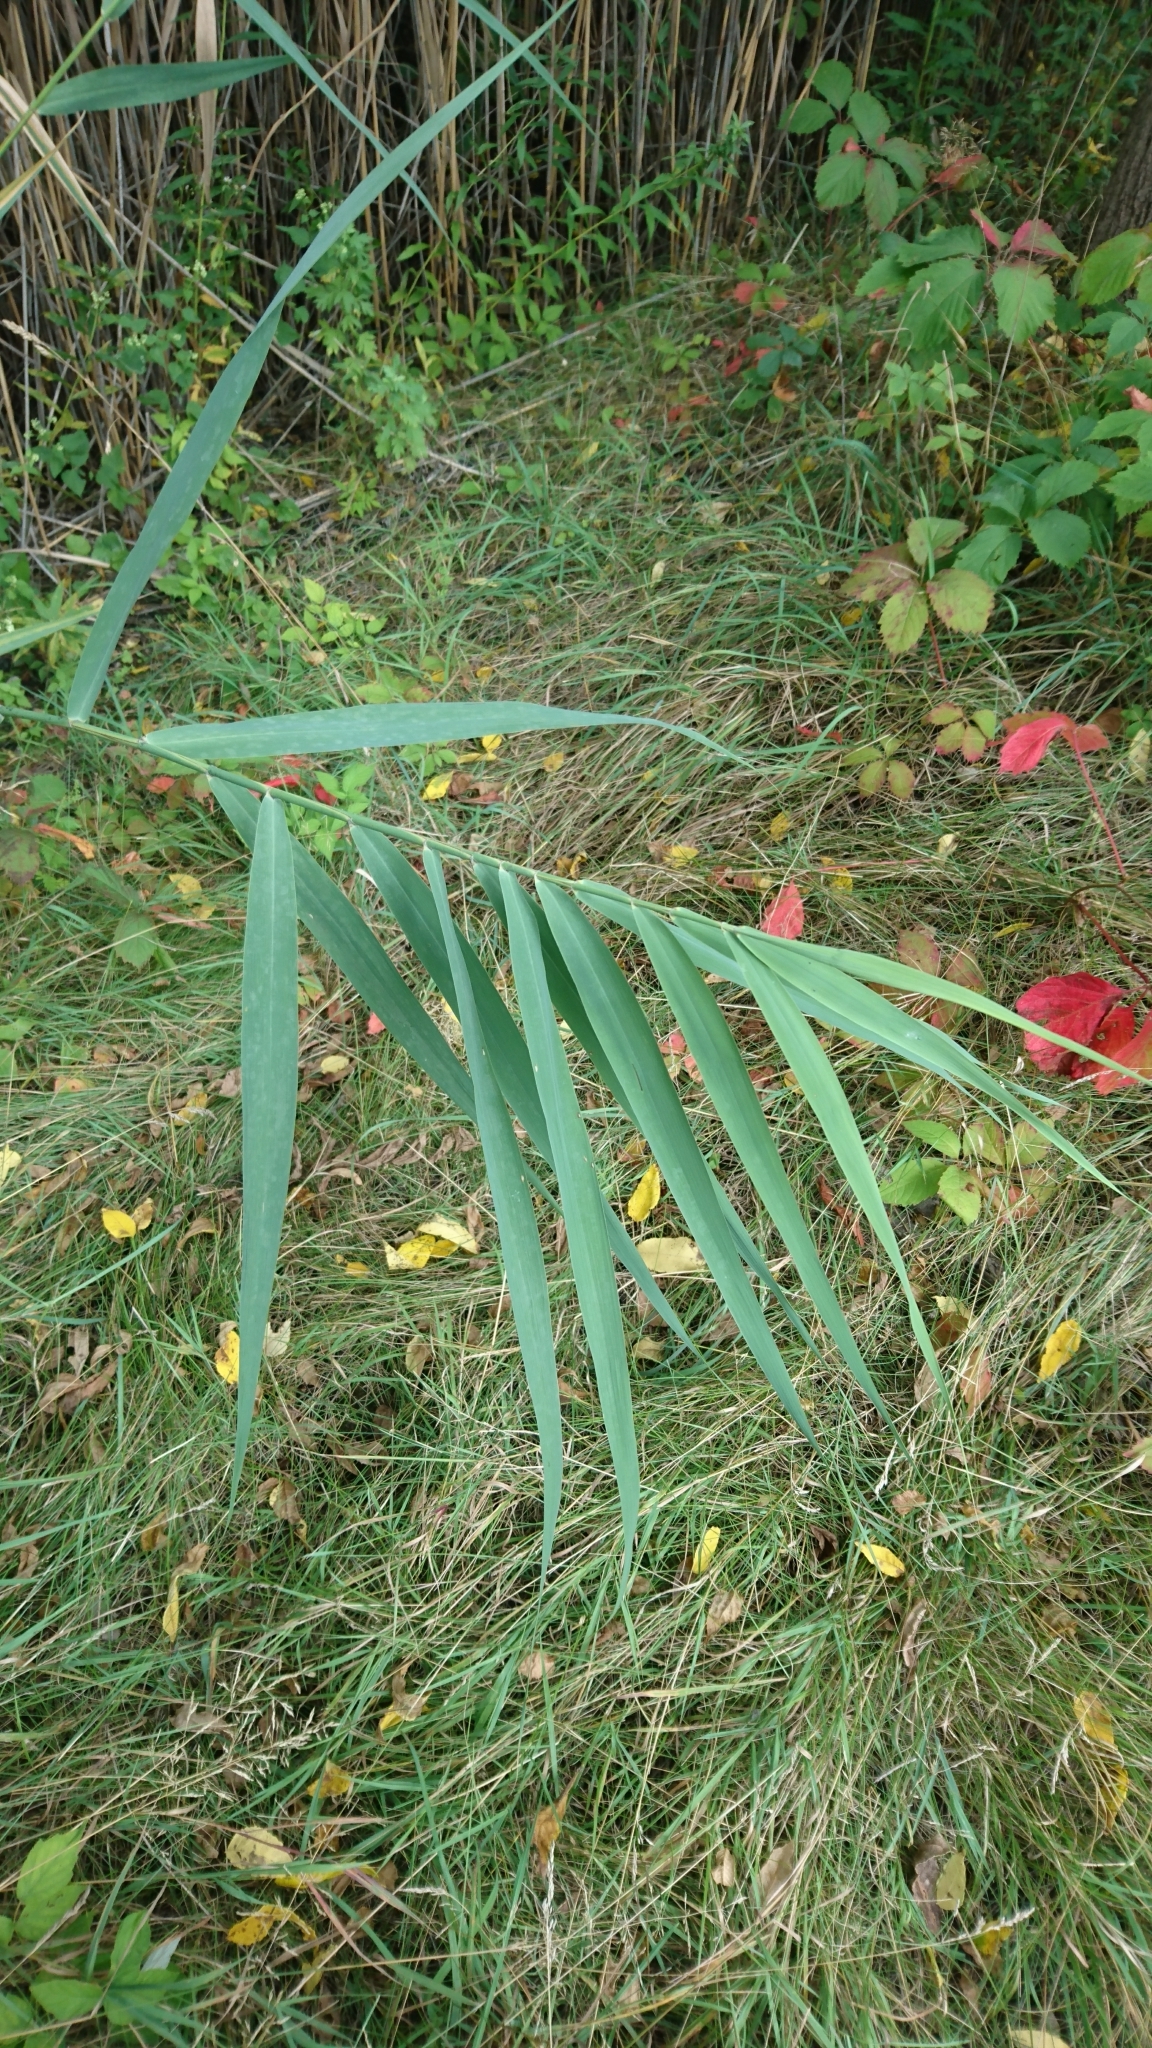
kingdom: Plantae
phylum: Tracheophyta
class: Liliopsida
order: Poales
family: Poaceae
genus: Phragmites
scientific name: Phragmites australis
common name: Common reed
